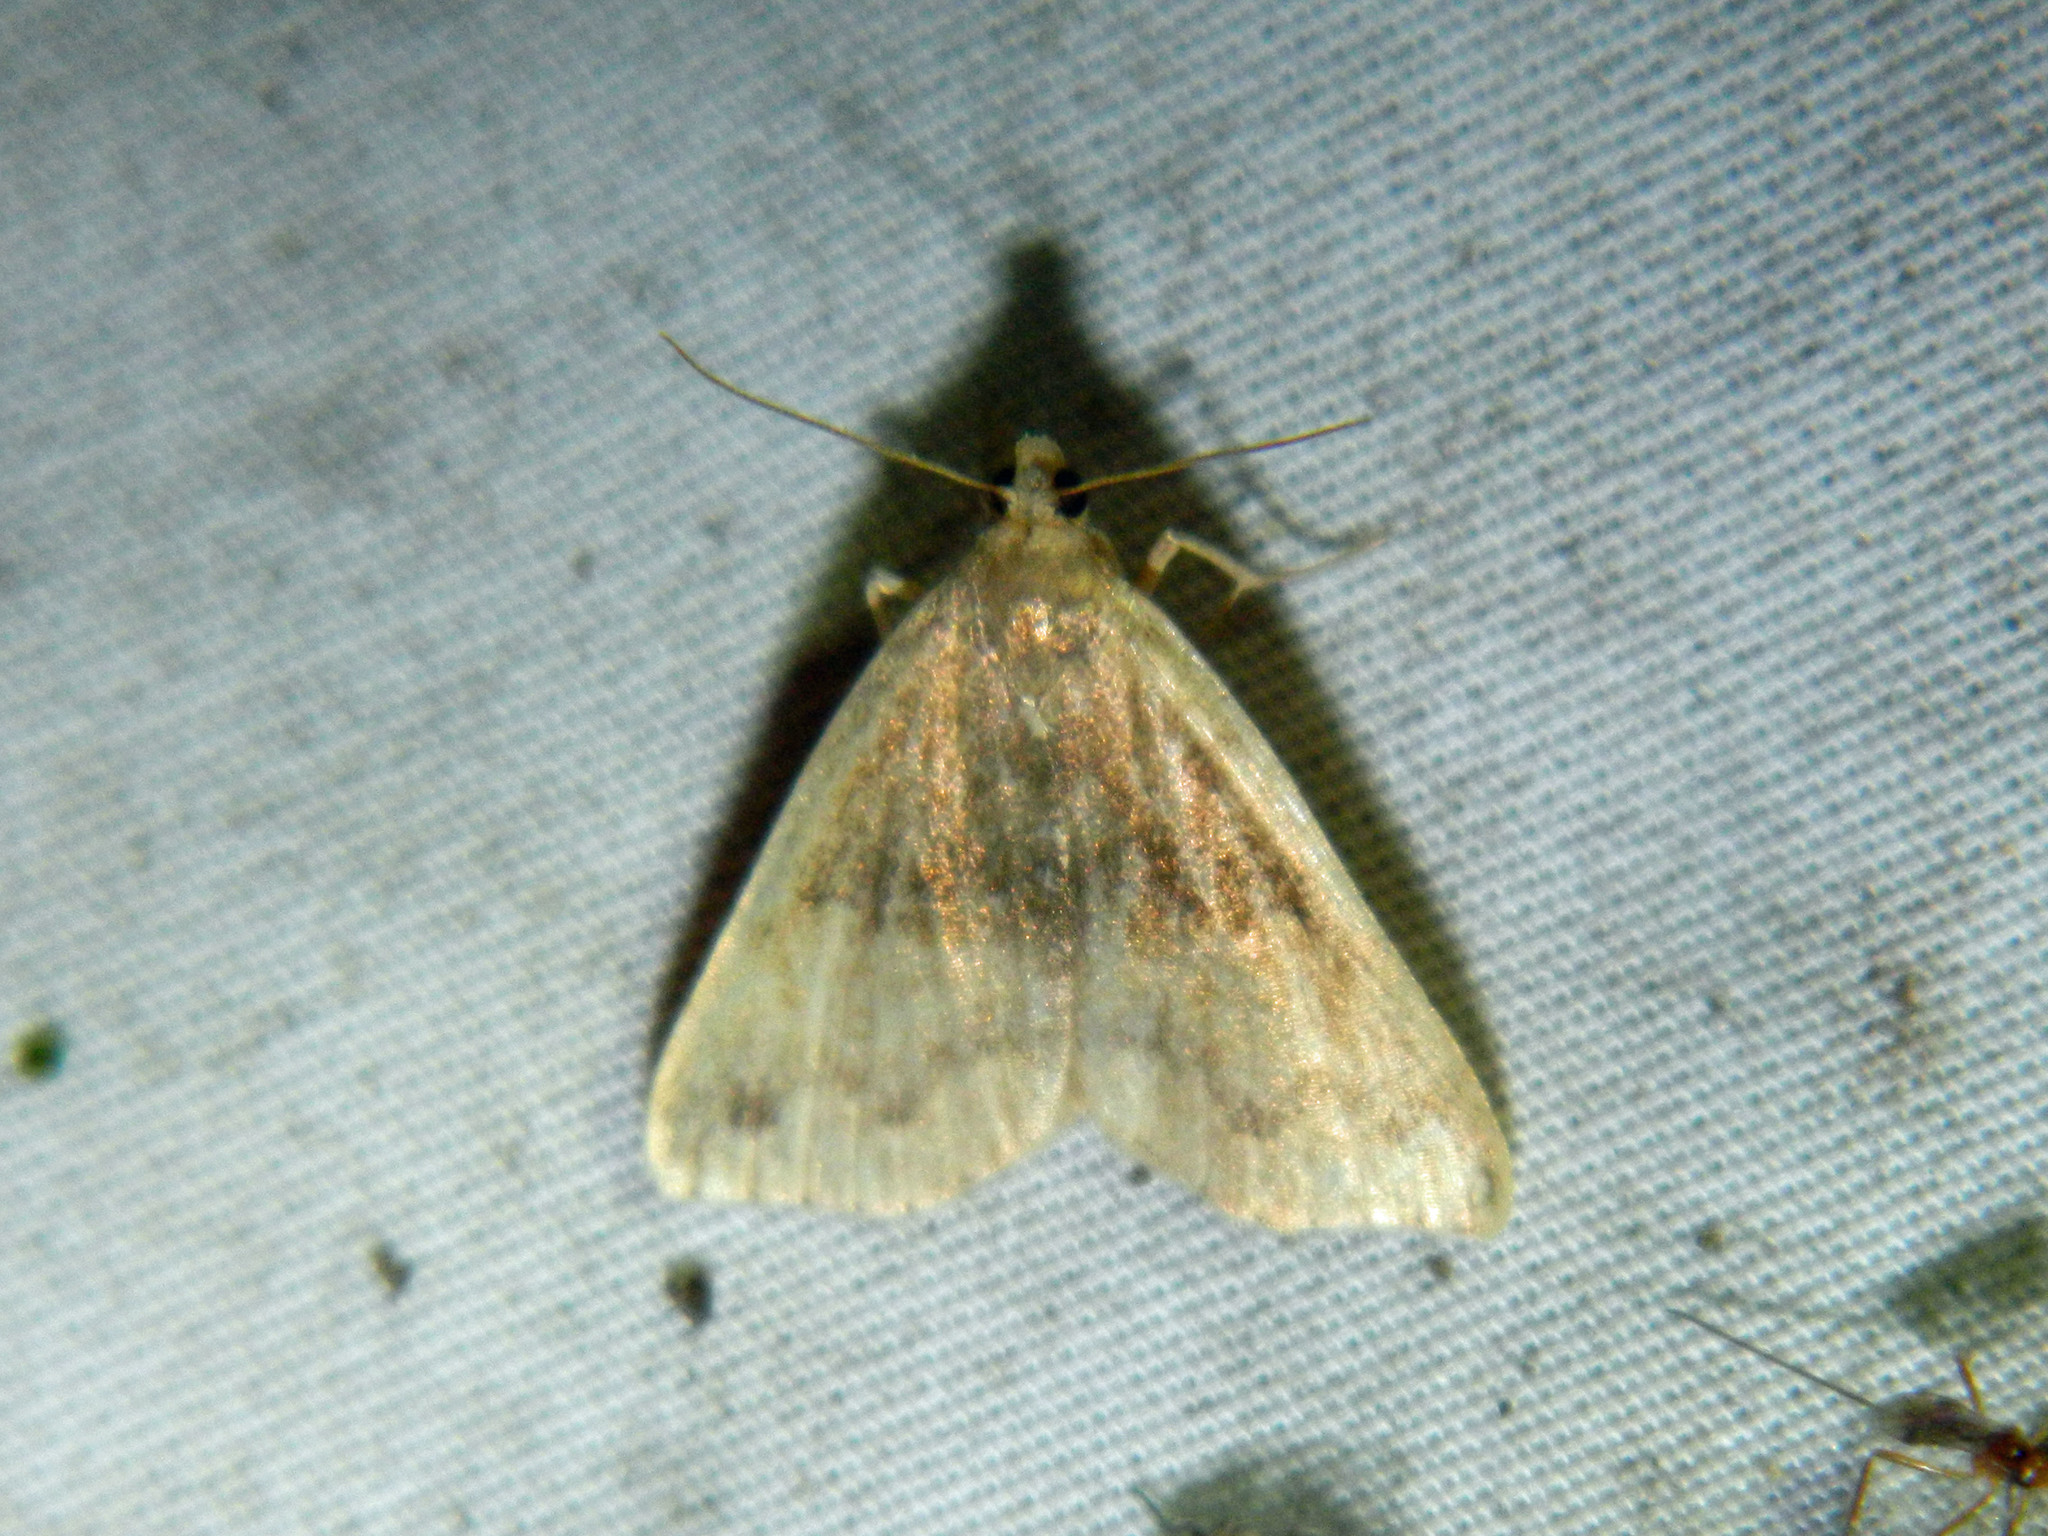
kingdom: Animalia
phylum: Arthropoda
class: Insecta
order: Lepidoptera
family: Erebidae
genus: Phalaenostola
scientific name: Phalaenostola eumelusalis
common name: Dark phalaenostola moth
